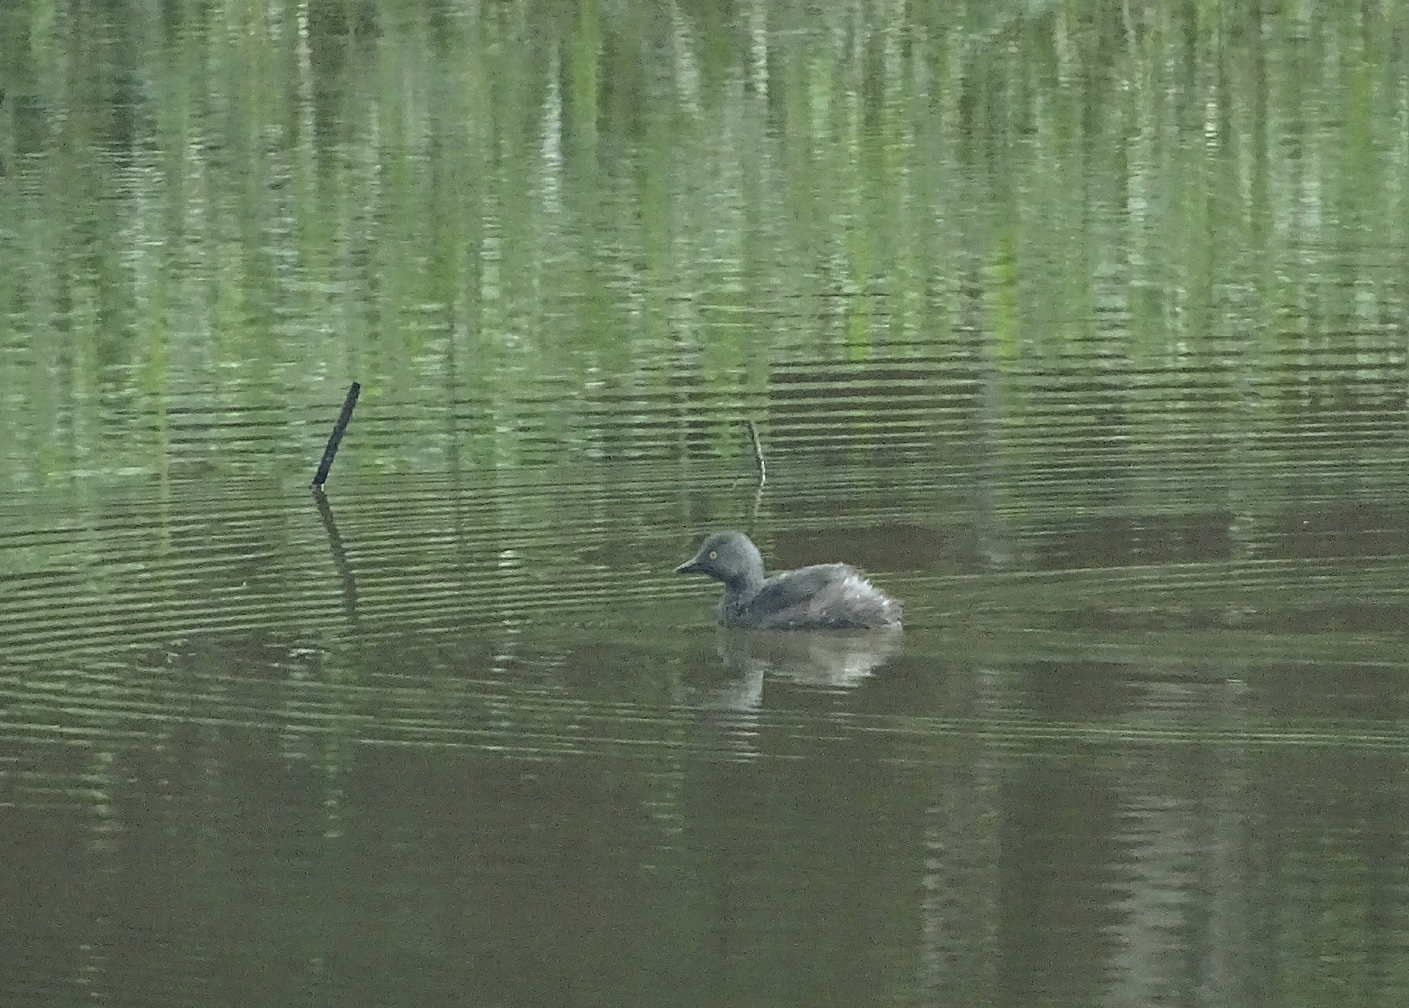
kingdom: Animalia
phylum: Chordata
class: Aves
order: Podicipediformes
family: Podicipedidae
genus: Tachybaptus
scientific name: Tachybaptus dominicus
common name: Least grebe
